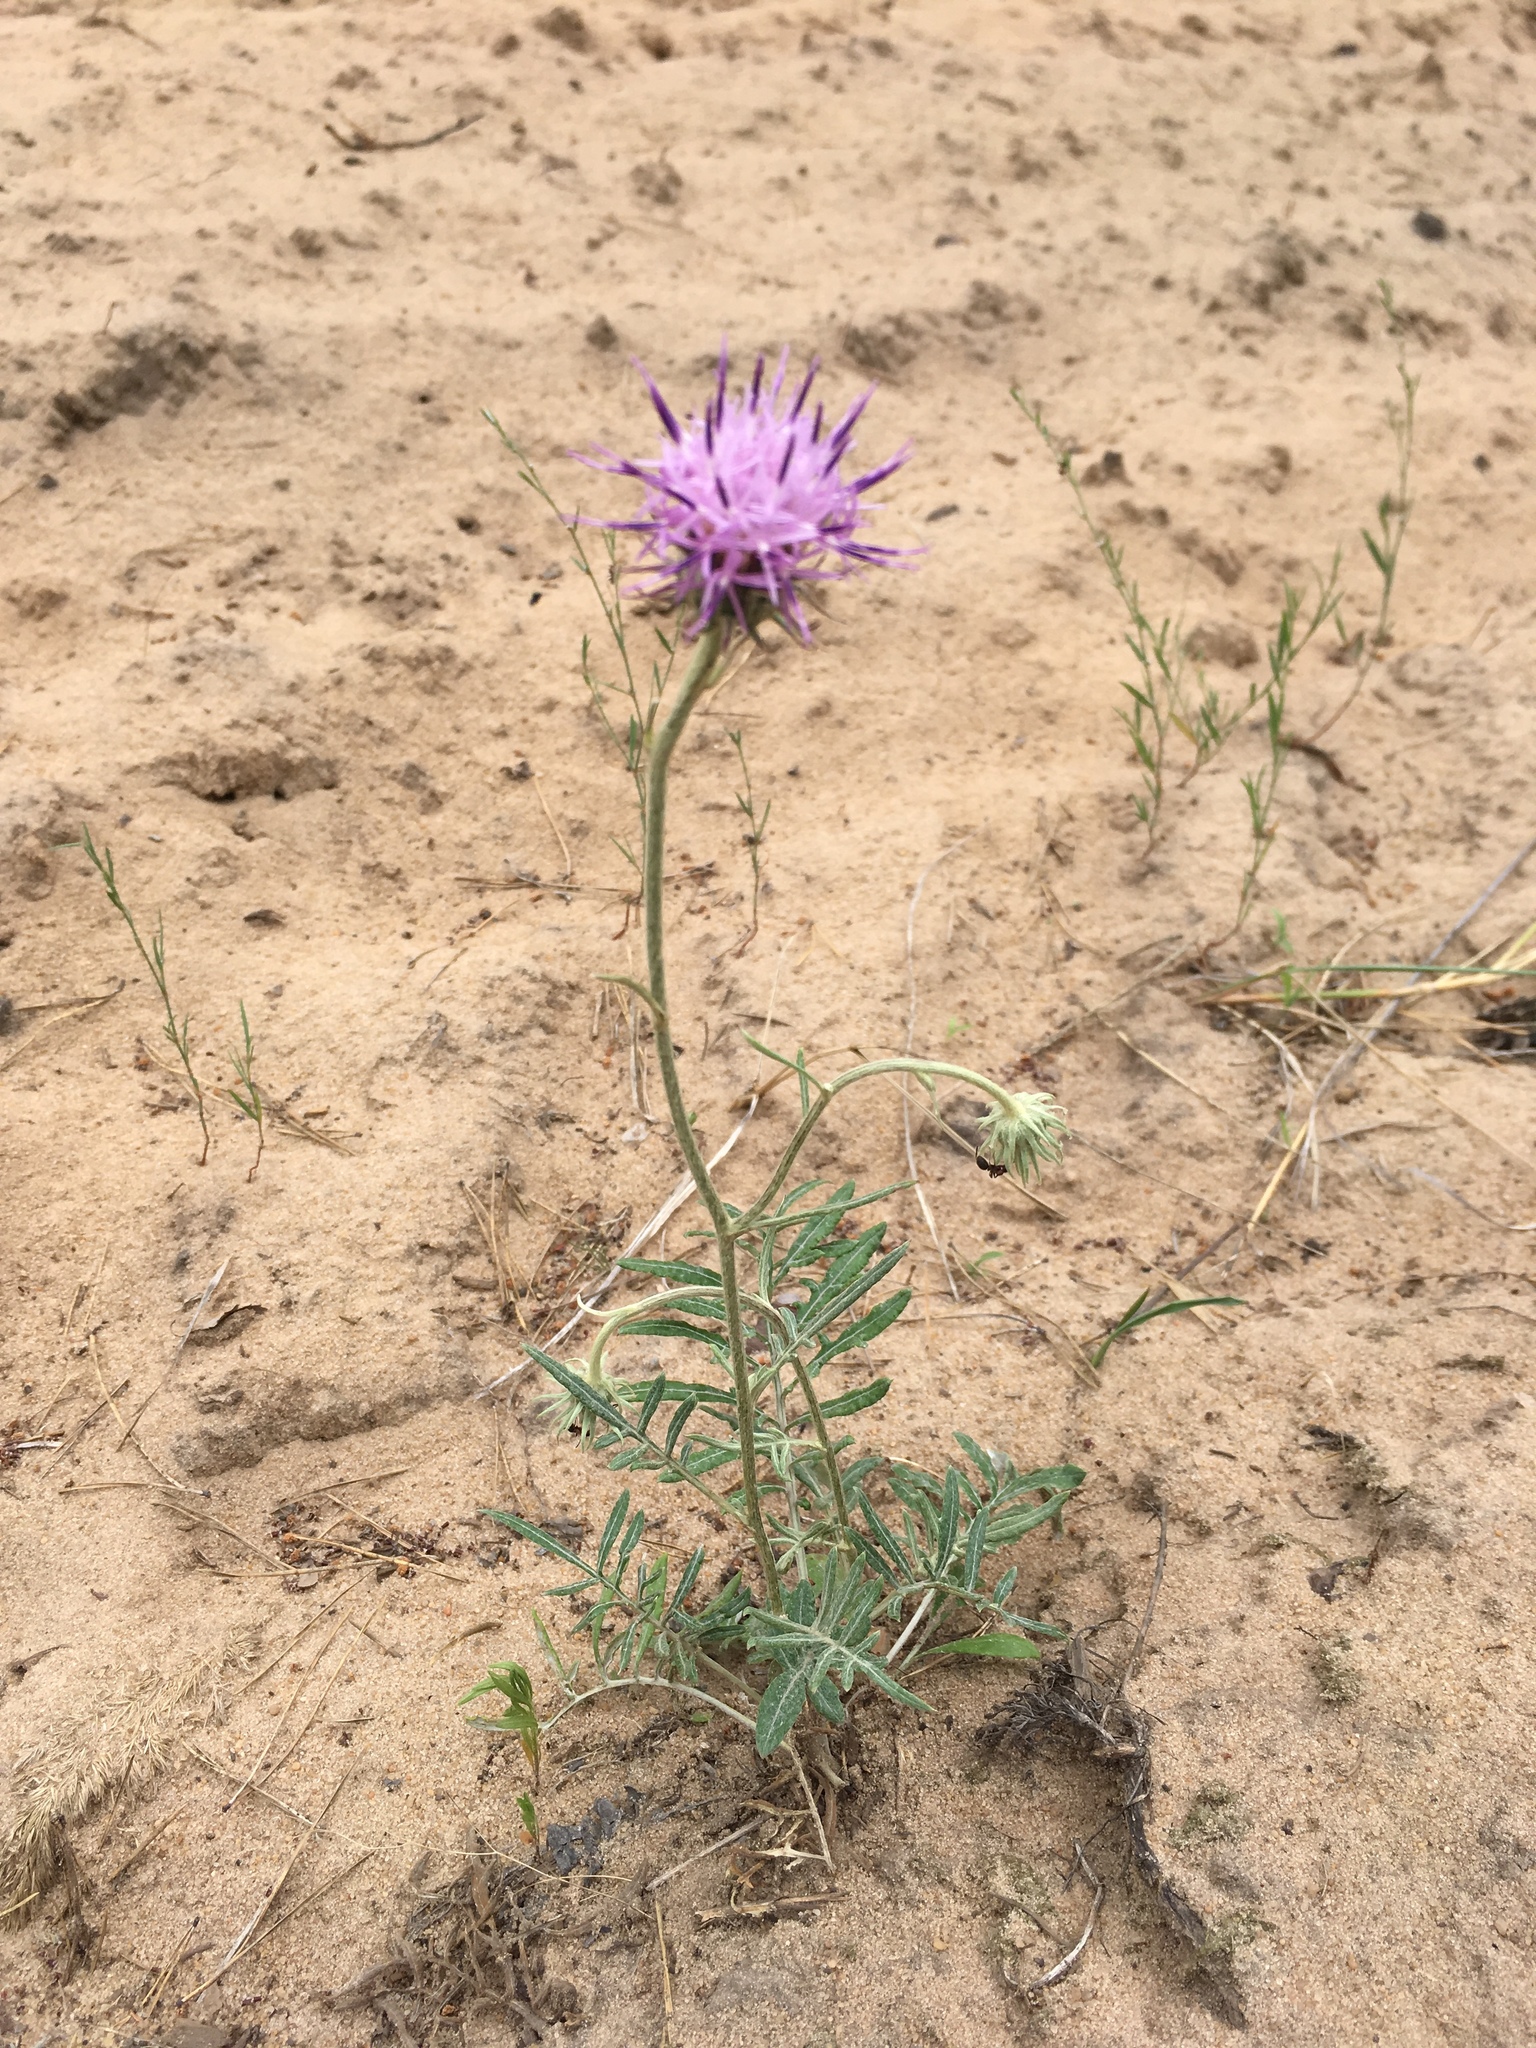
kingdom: Plantae
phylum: Tracheophyta
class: Magnoliopsida
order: Asterales
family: Asteraceae
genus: Jurinea
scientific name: Jurinea cyanoides
